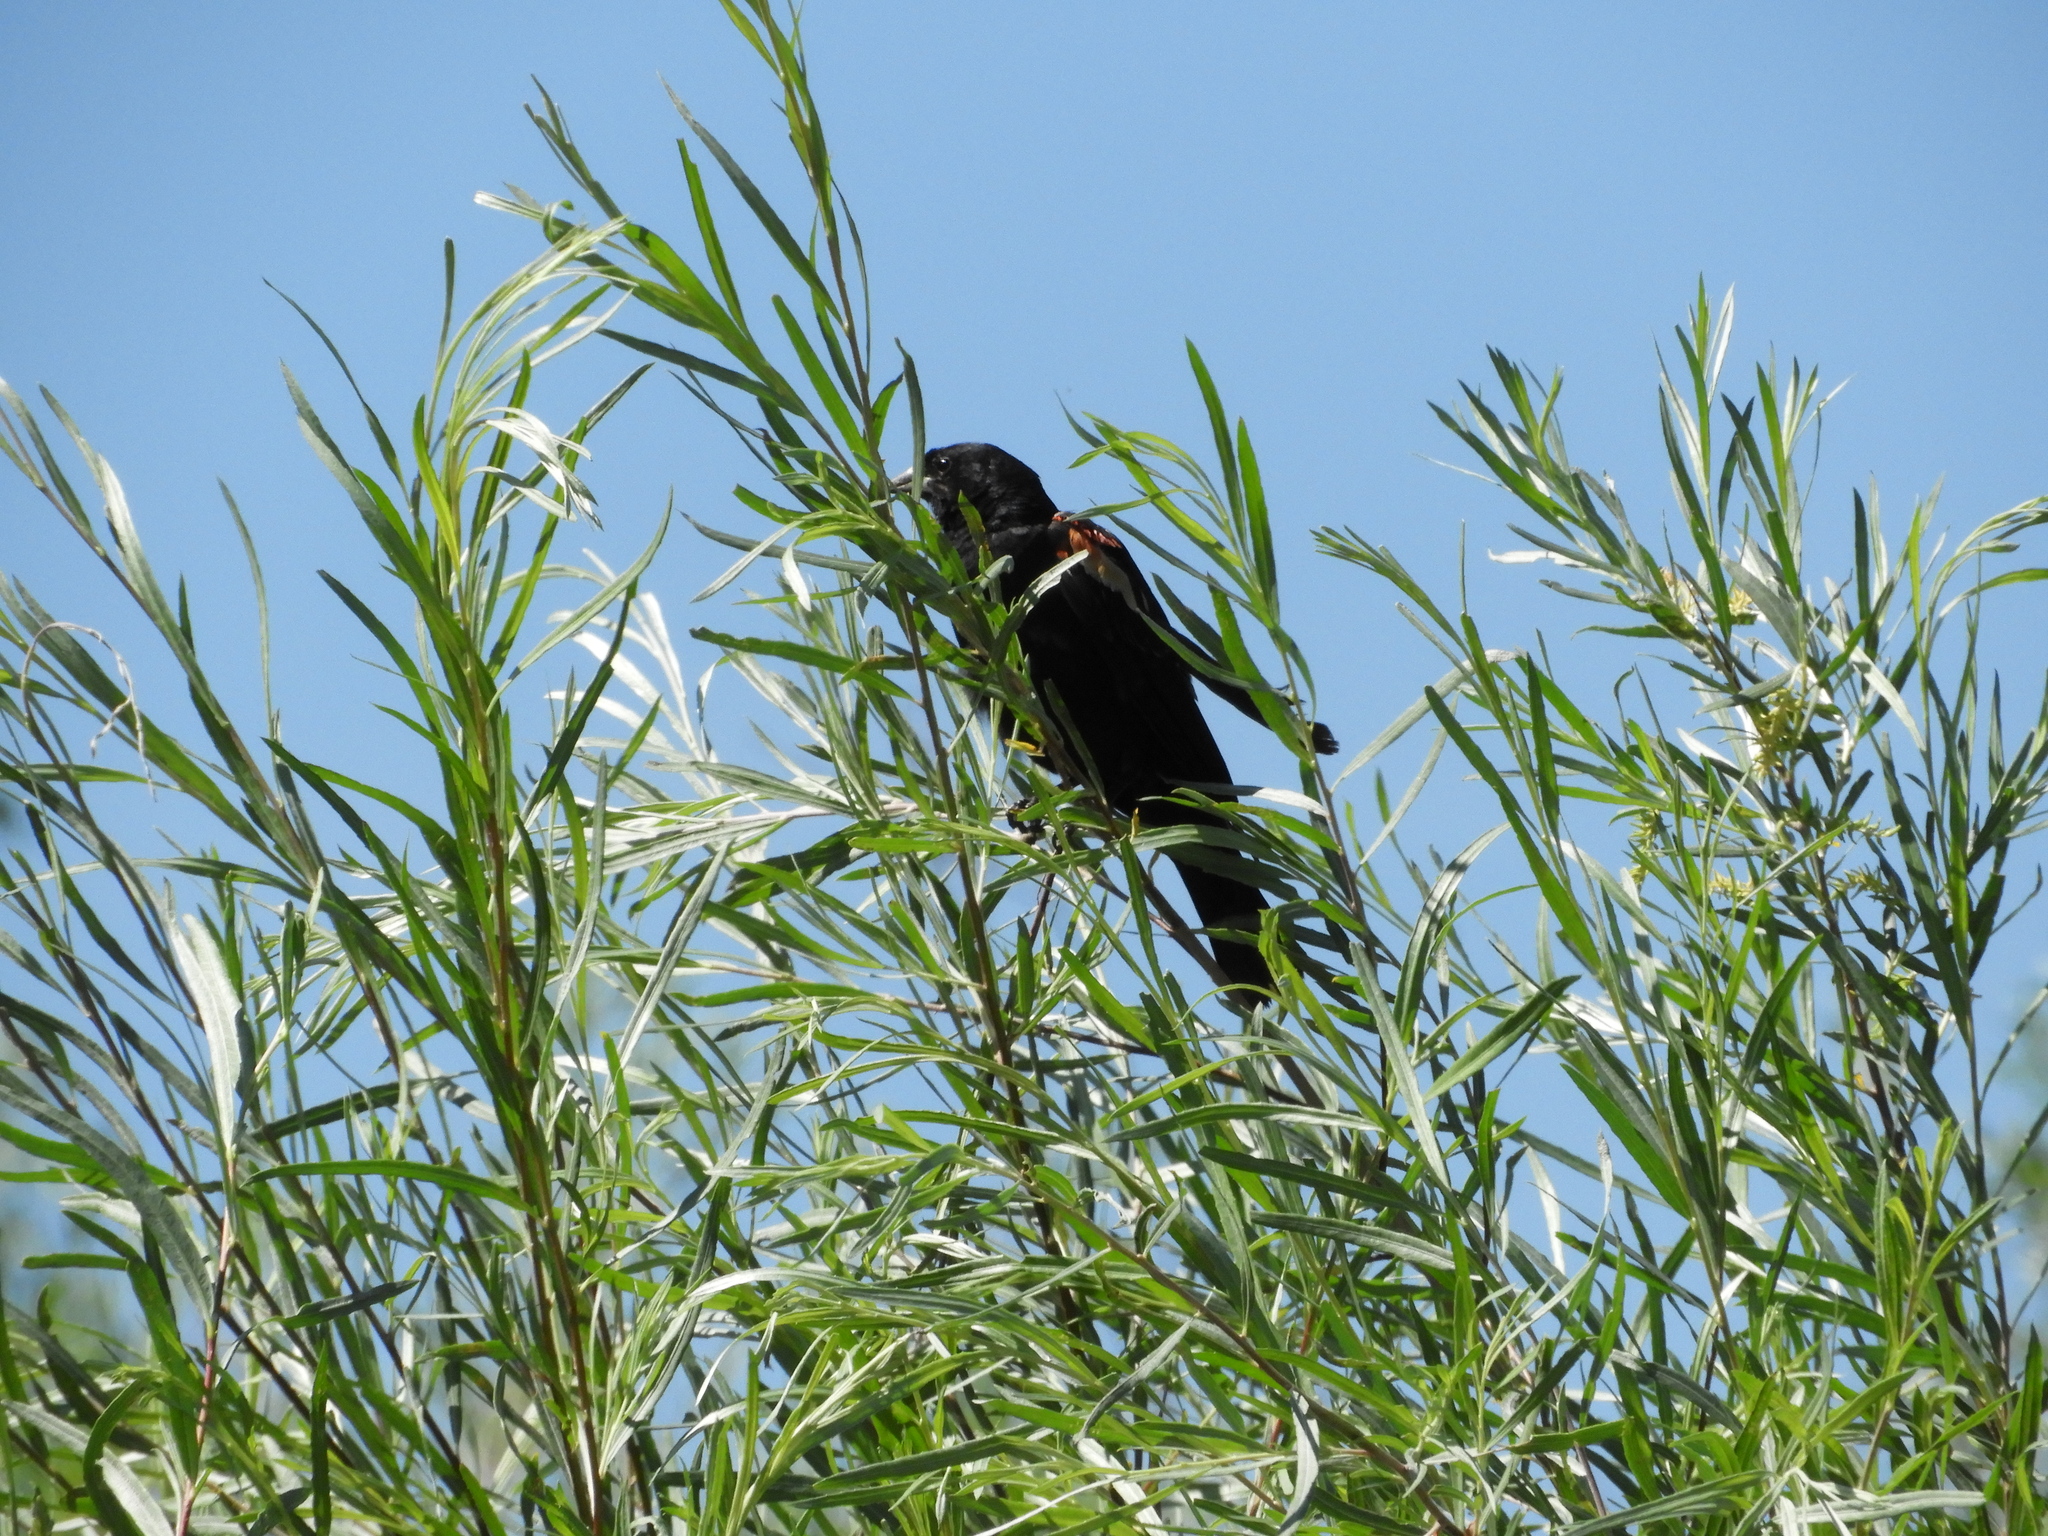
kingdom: Animalia
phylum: Chordata
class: Aves
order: Passeriformes
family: Icteridae
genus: Agelaius
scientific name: Agelaius phoeniceus
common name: Red-winged blackbird
